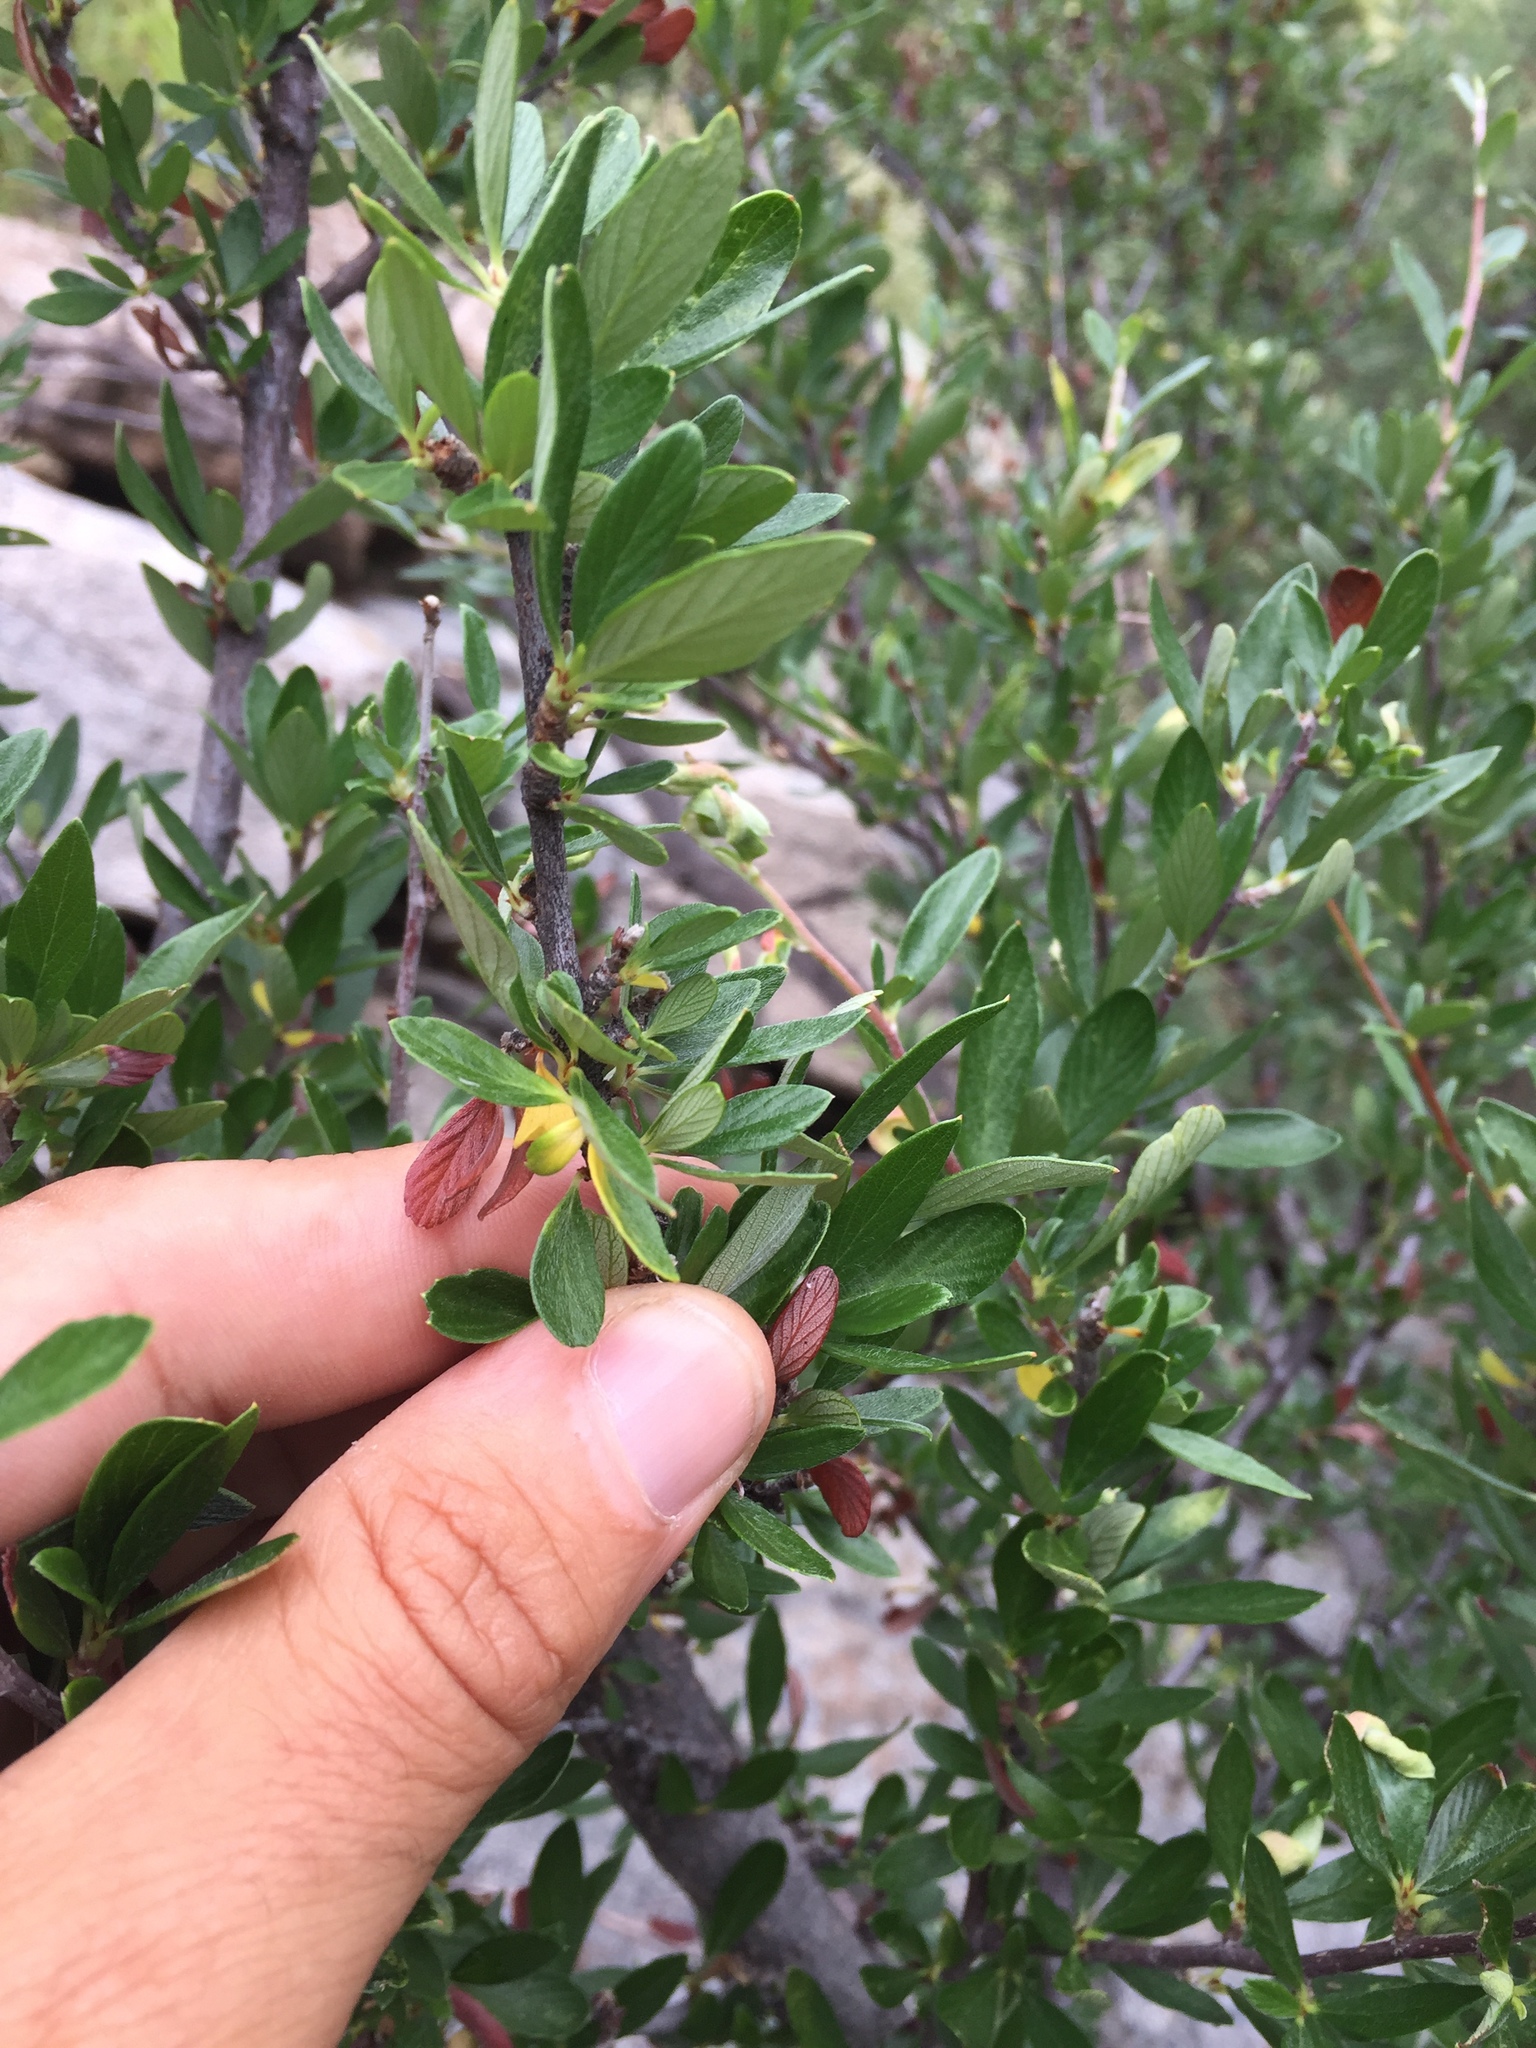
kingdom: Plantae
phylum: Tracheophyta
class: Magnoliopsida
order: Rosales
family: Rosaceae
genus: Cercocarpus
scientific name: Cercocarpus breviflorus
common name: Wright's mountain-mahogany
